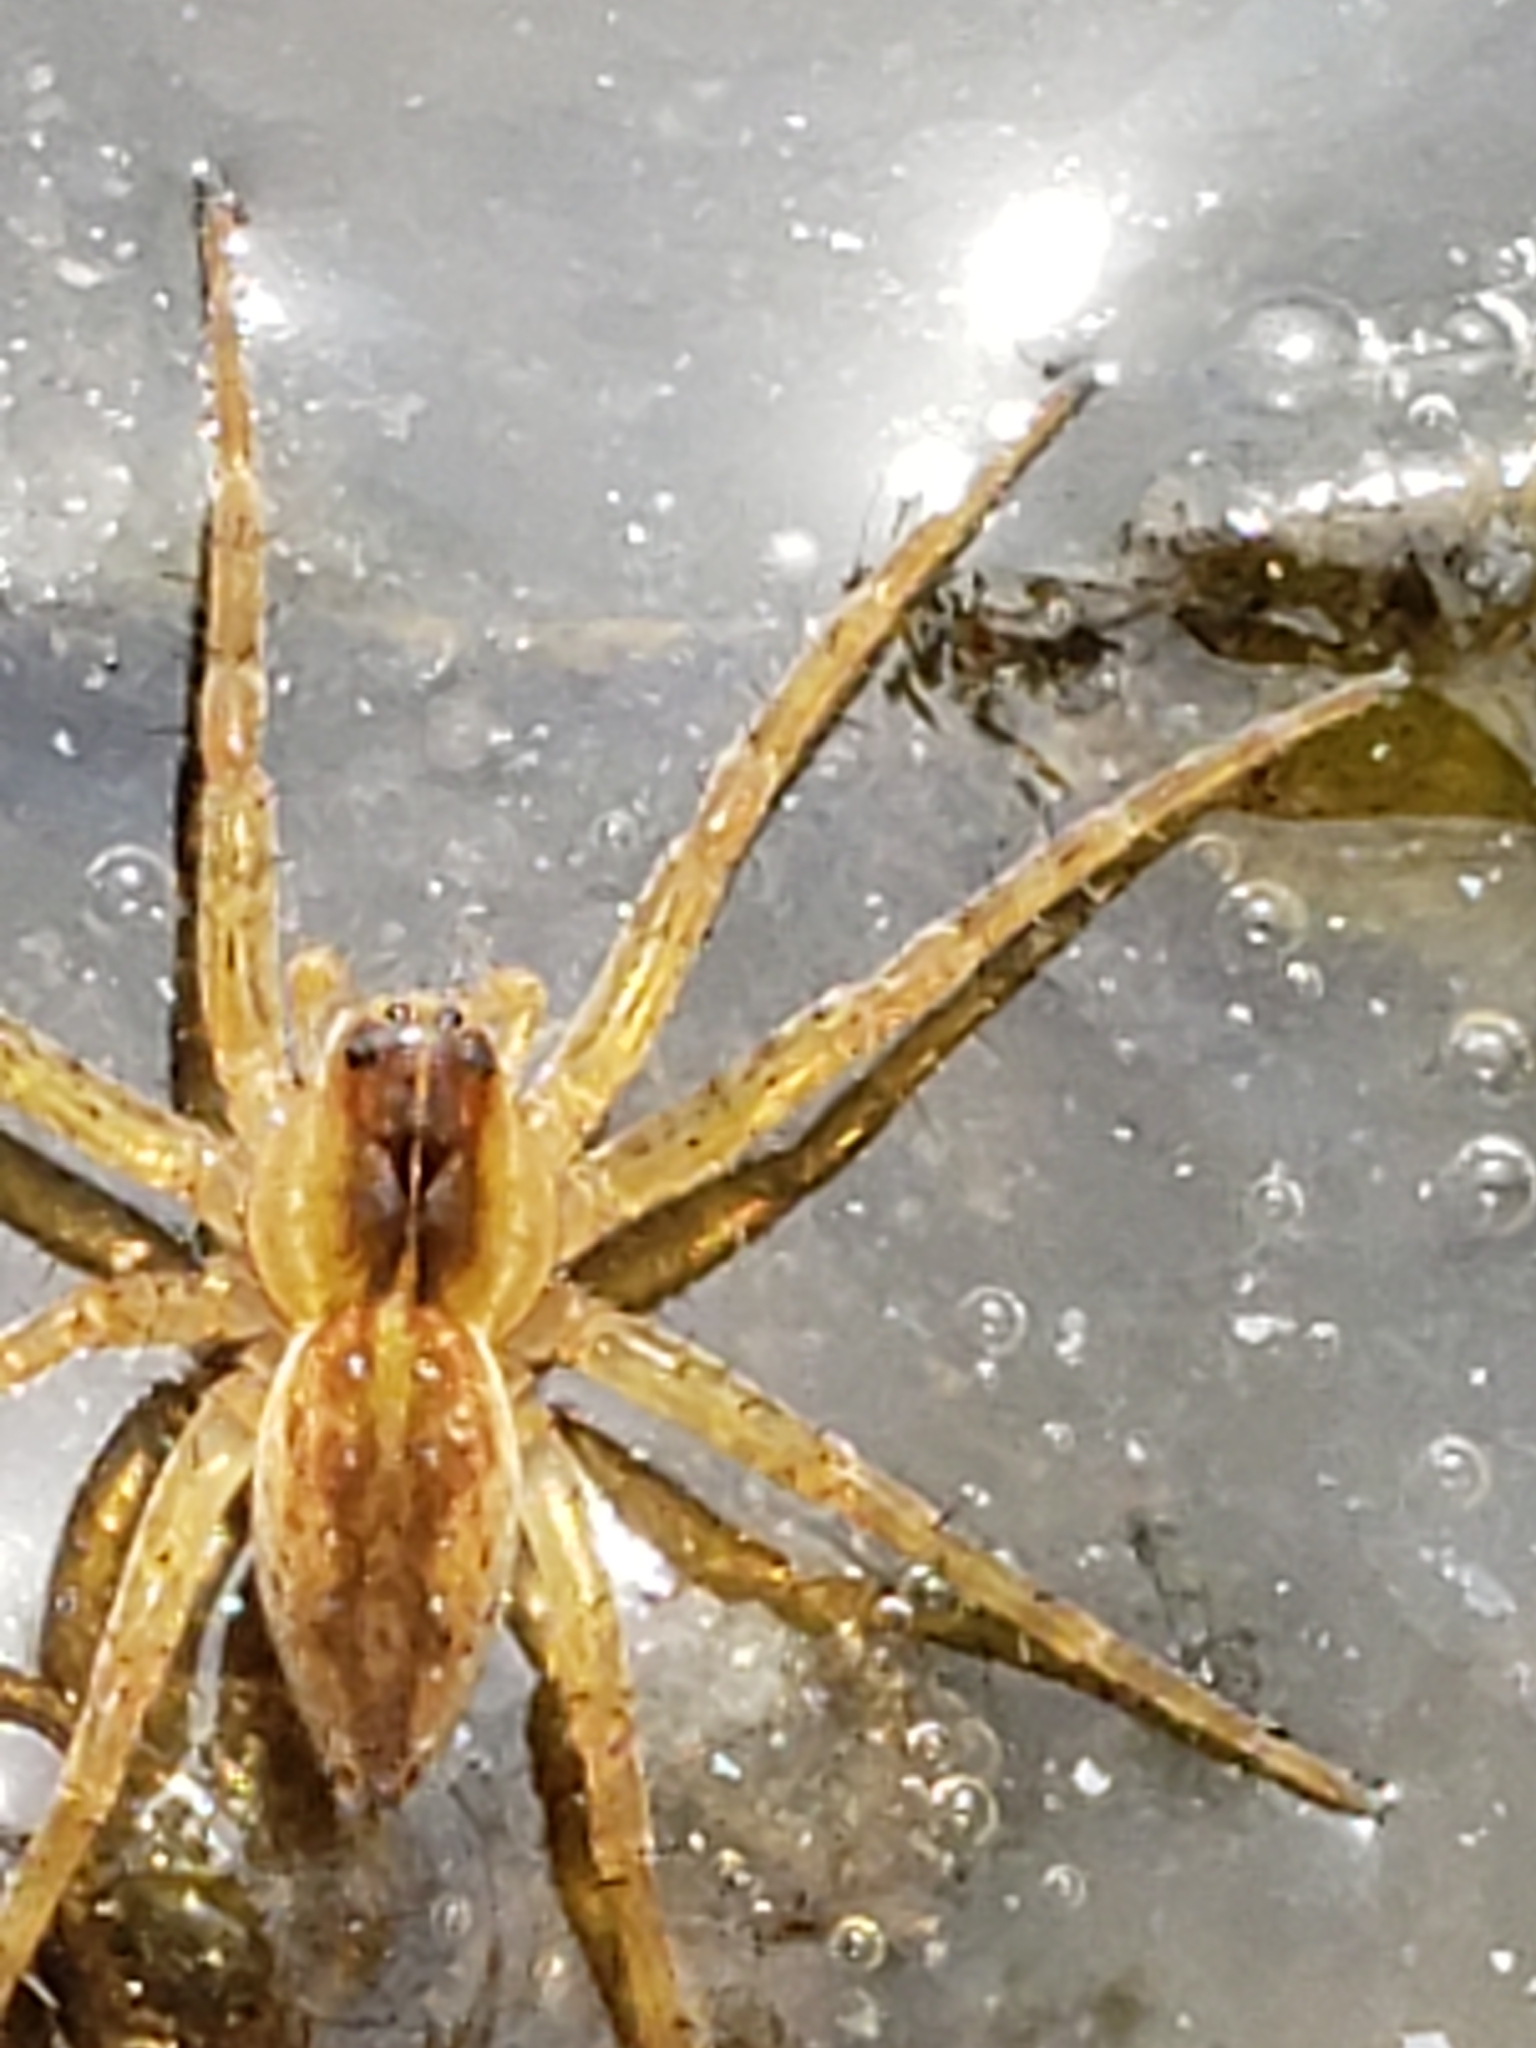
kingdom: Animalia
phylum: Arthropoda
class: Arachnida
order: Araneae
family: Pisauridae
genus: Dolomedes
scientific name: Dolomedes triton
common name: Six-spotted fishing spider
